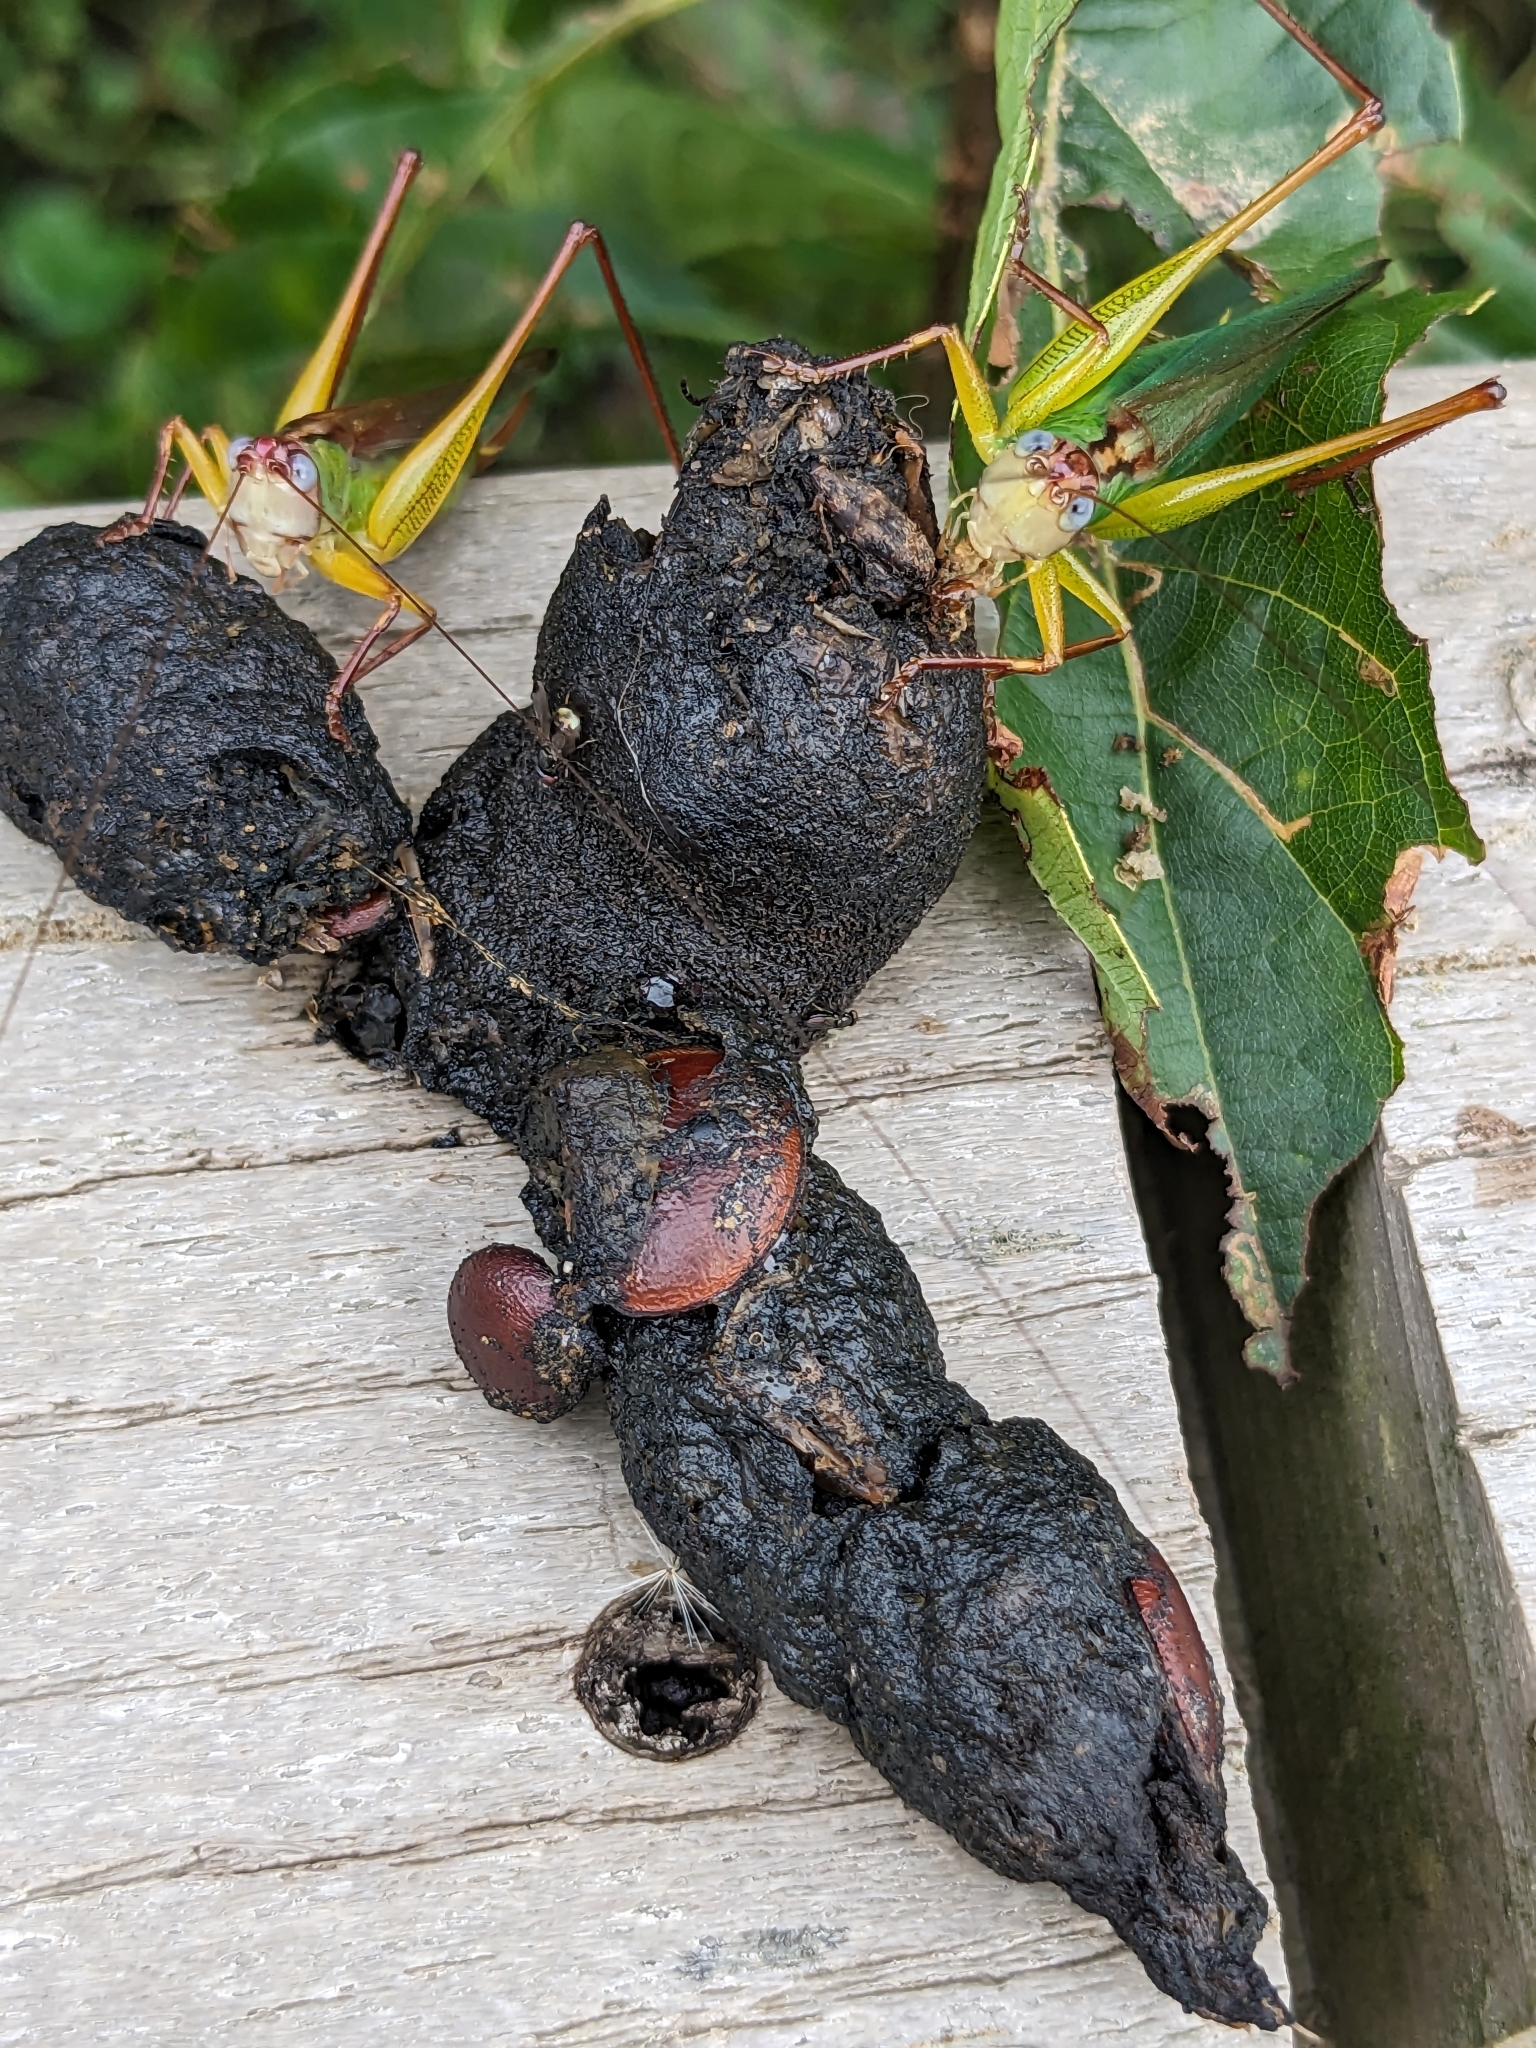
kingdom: Plantae
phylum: Tracheophyta
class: Magnoliopsida
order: Ericales
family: Ebenaceae
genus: Diospyros
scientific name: Diospyros virginiana
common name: Persimmon
